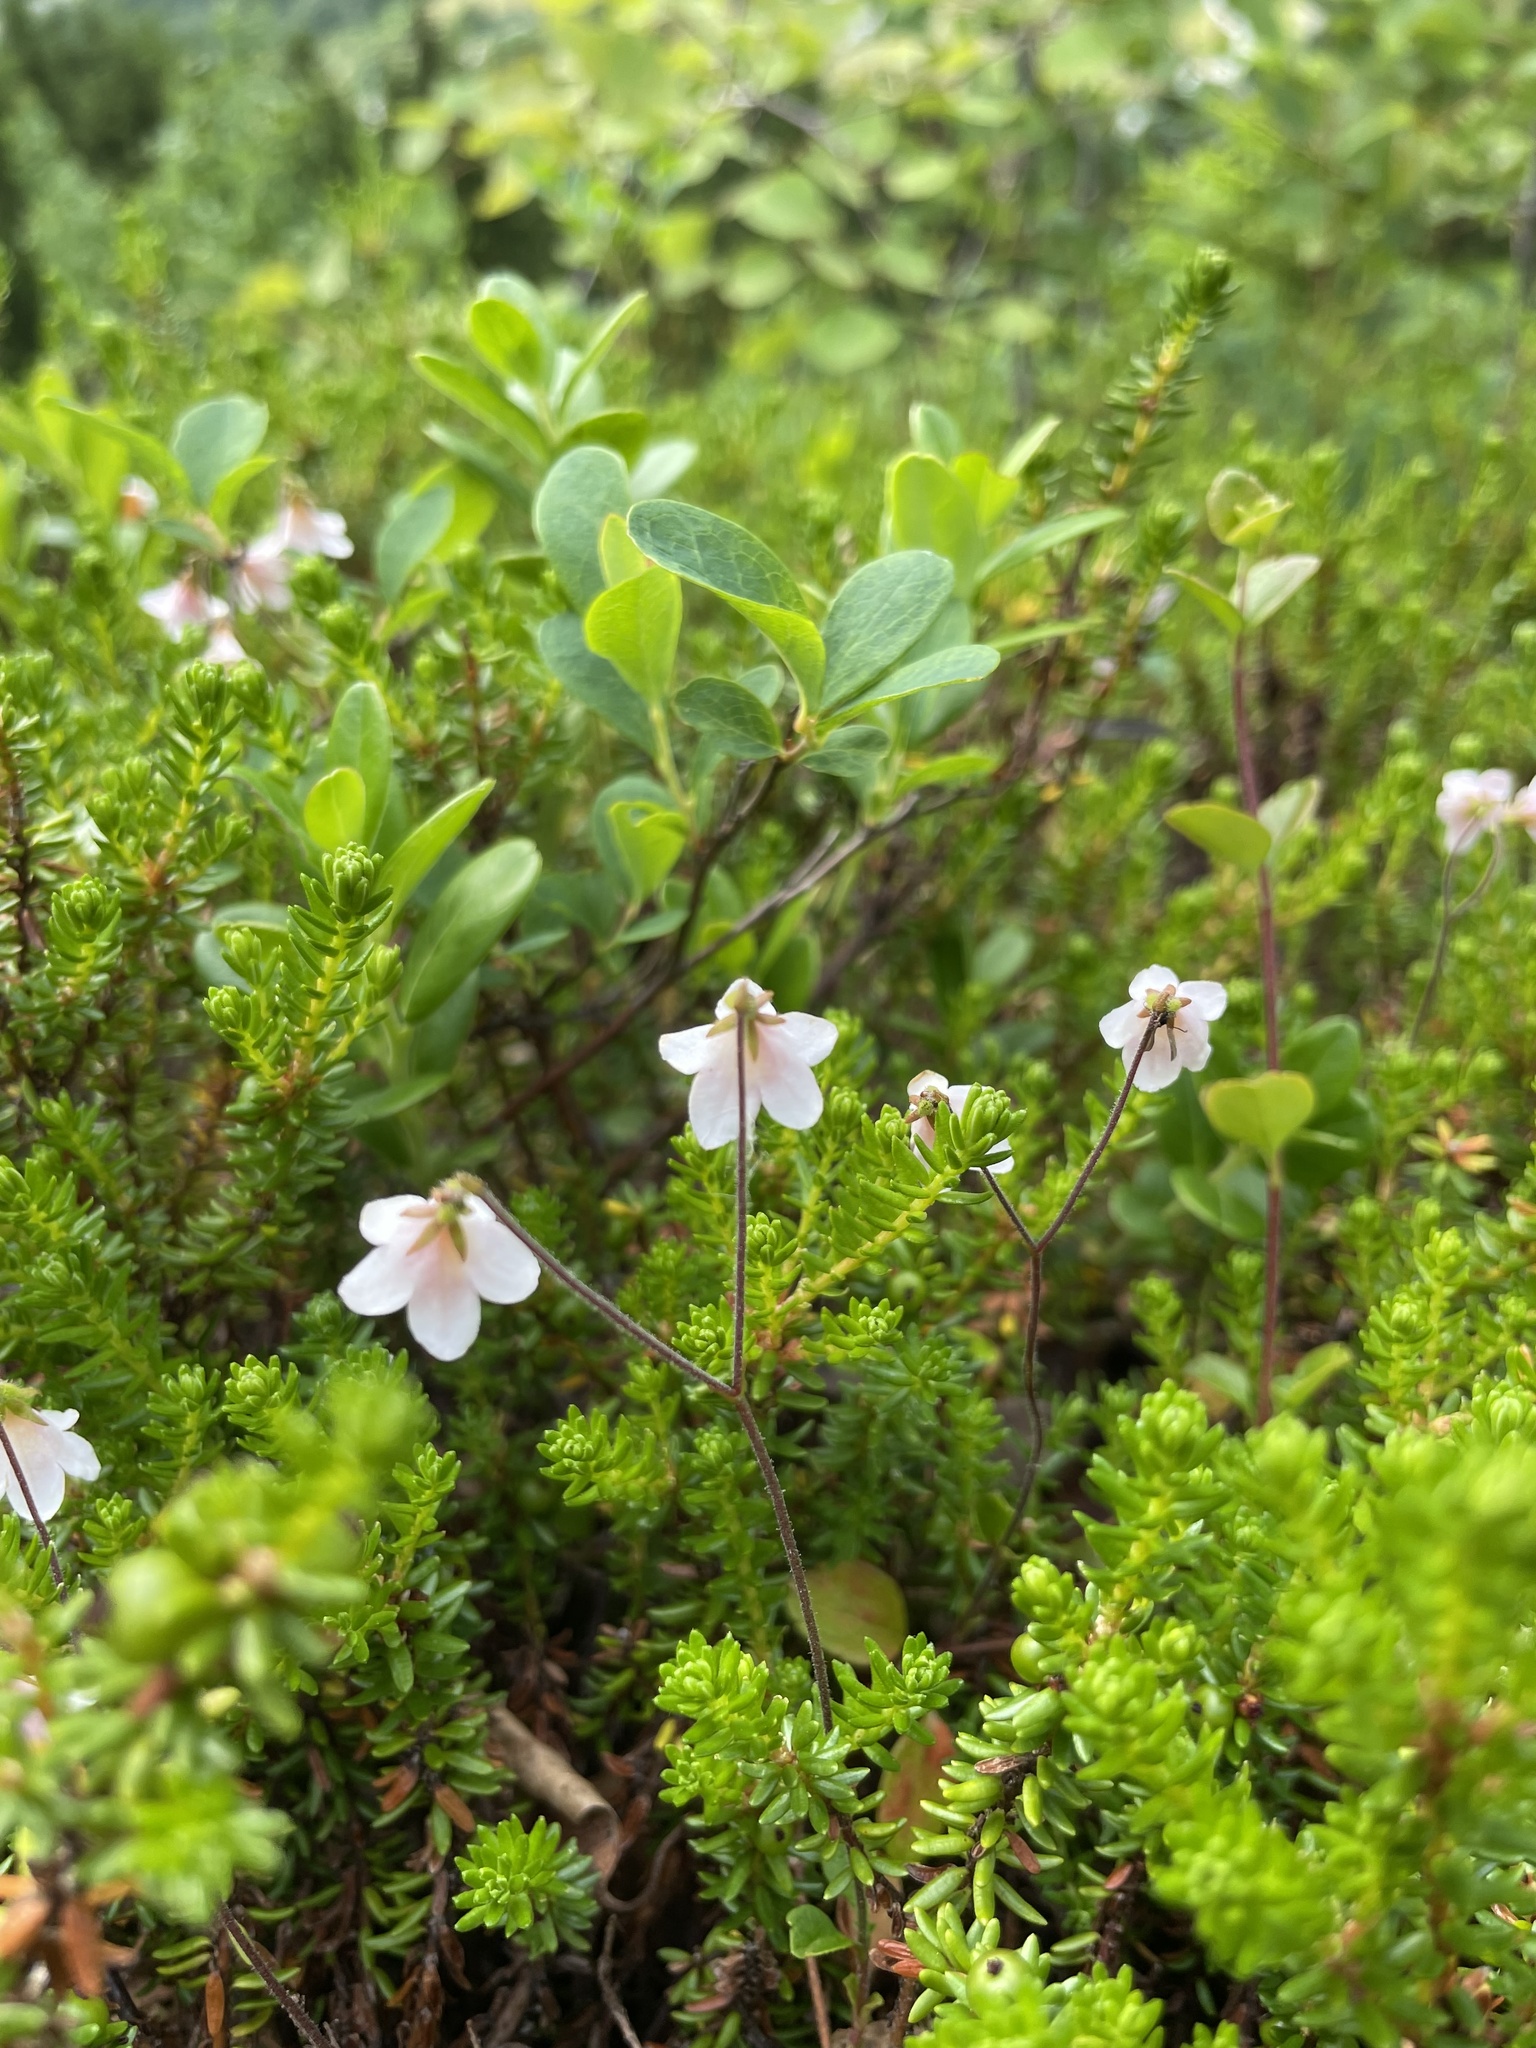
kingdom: Plantae
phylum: Tracheophyta
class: Magnoliopsida
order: Dipsacales
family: Caprifoliaceae
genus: Linnaea
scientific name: Linnaea borealis
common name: Twinflower
